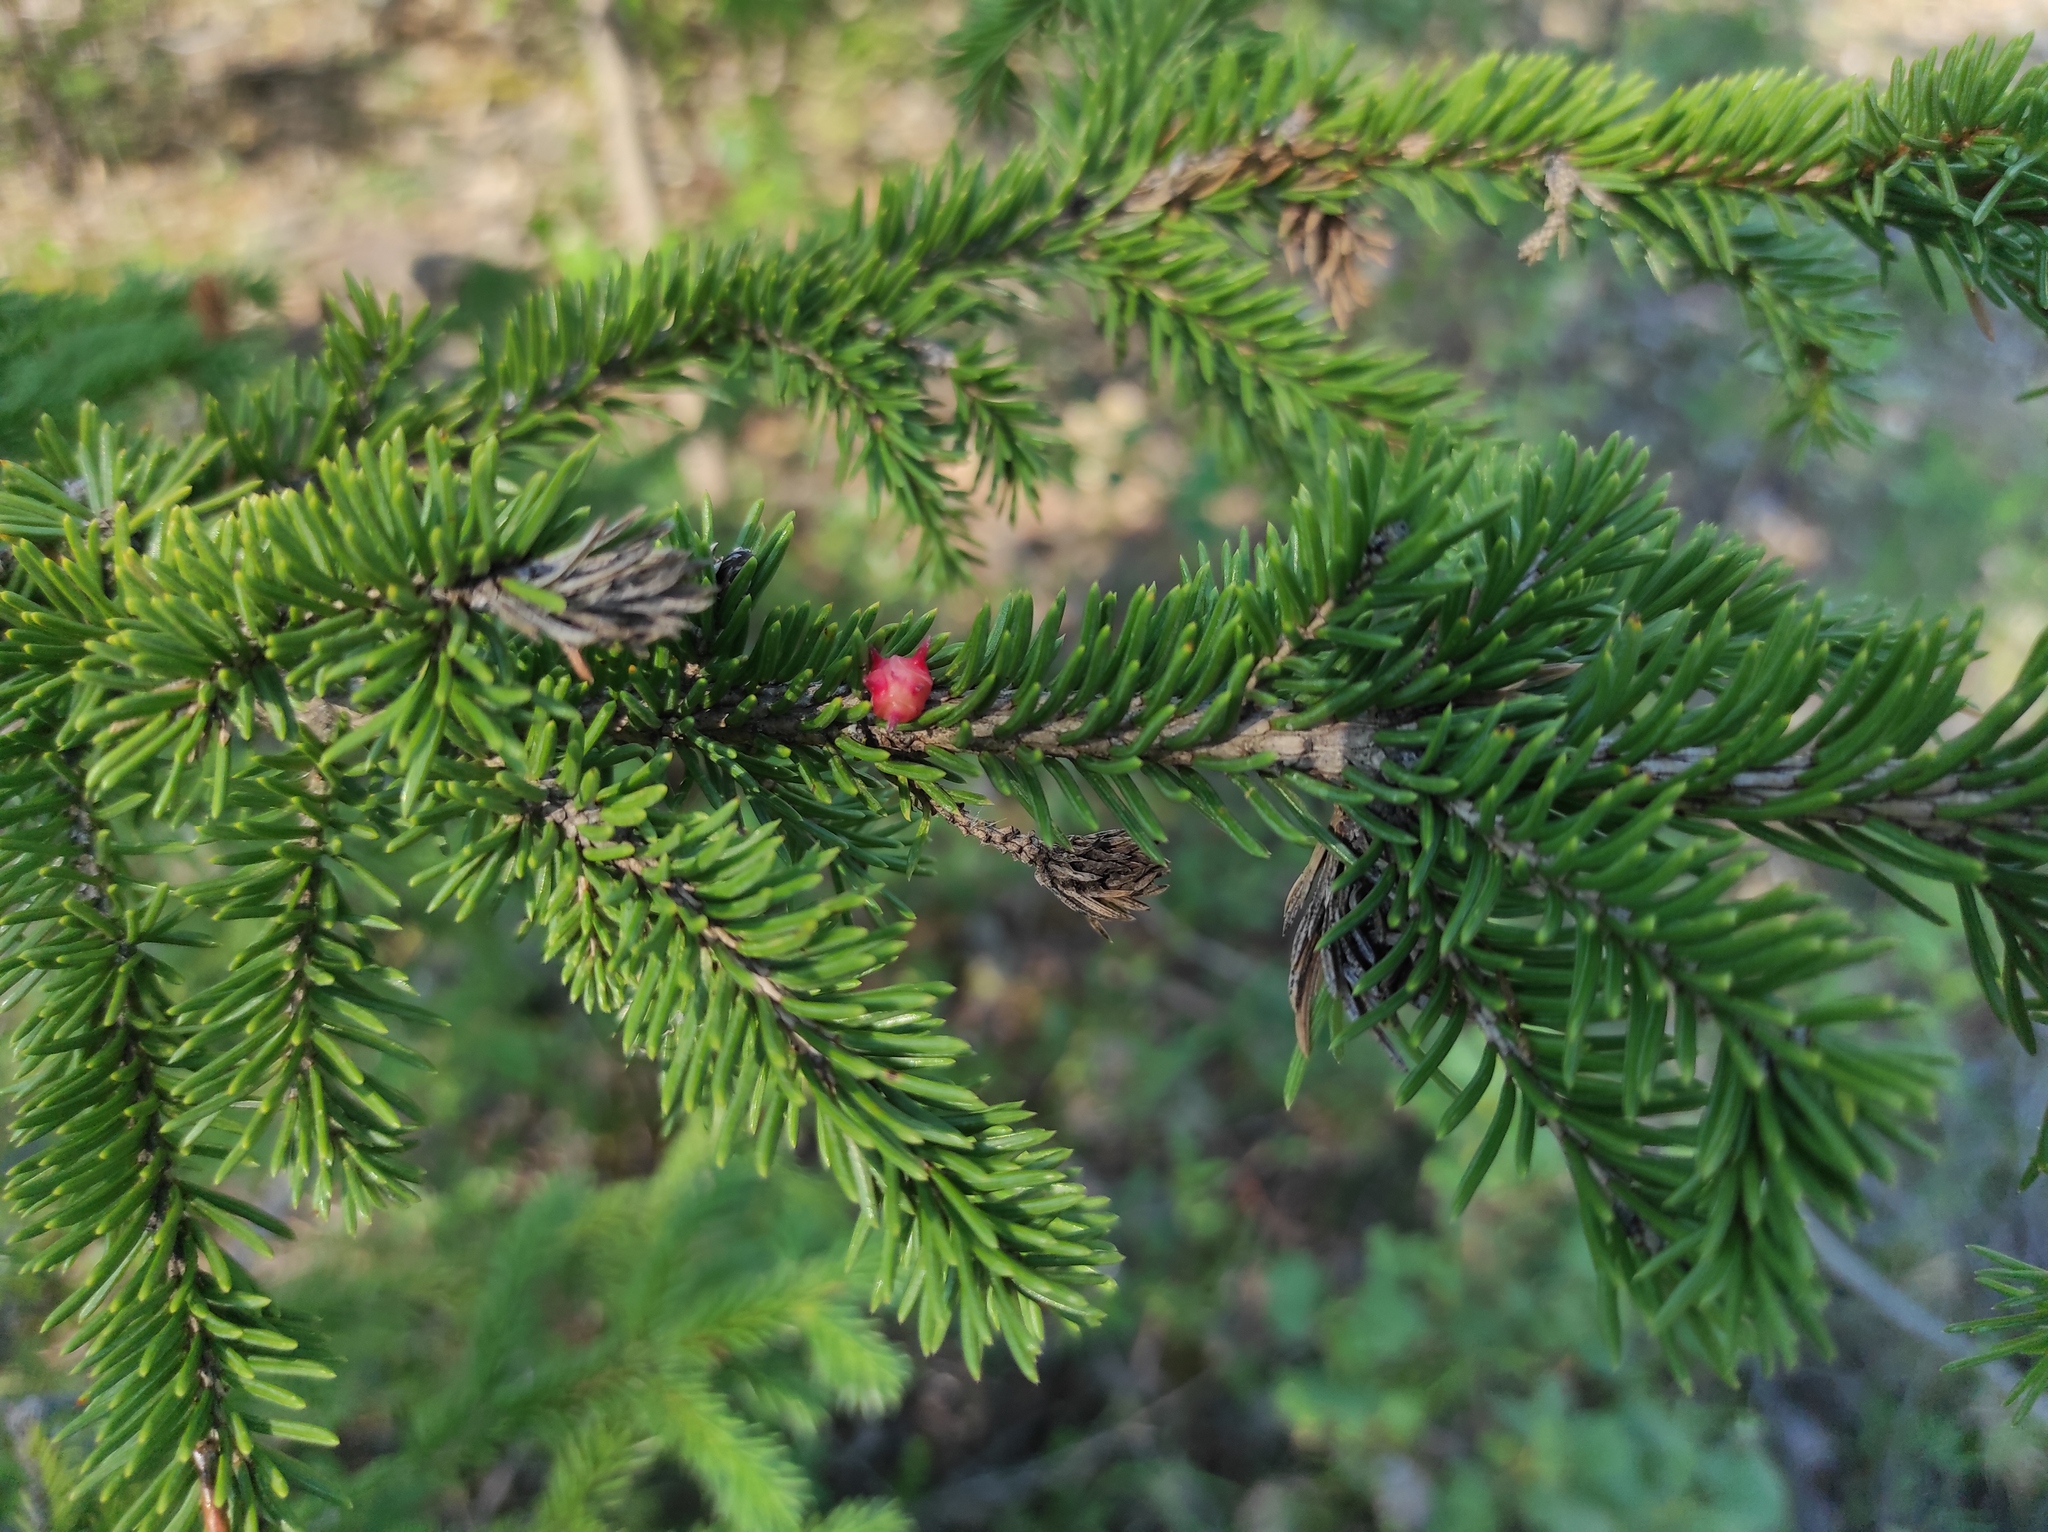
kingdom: Plantae
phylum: Tracheophyta
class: Pinopsida
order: Pinales
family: Pinaceae
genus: Picea
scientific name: Picea obovata
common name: Siberian spruce
